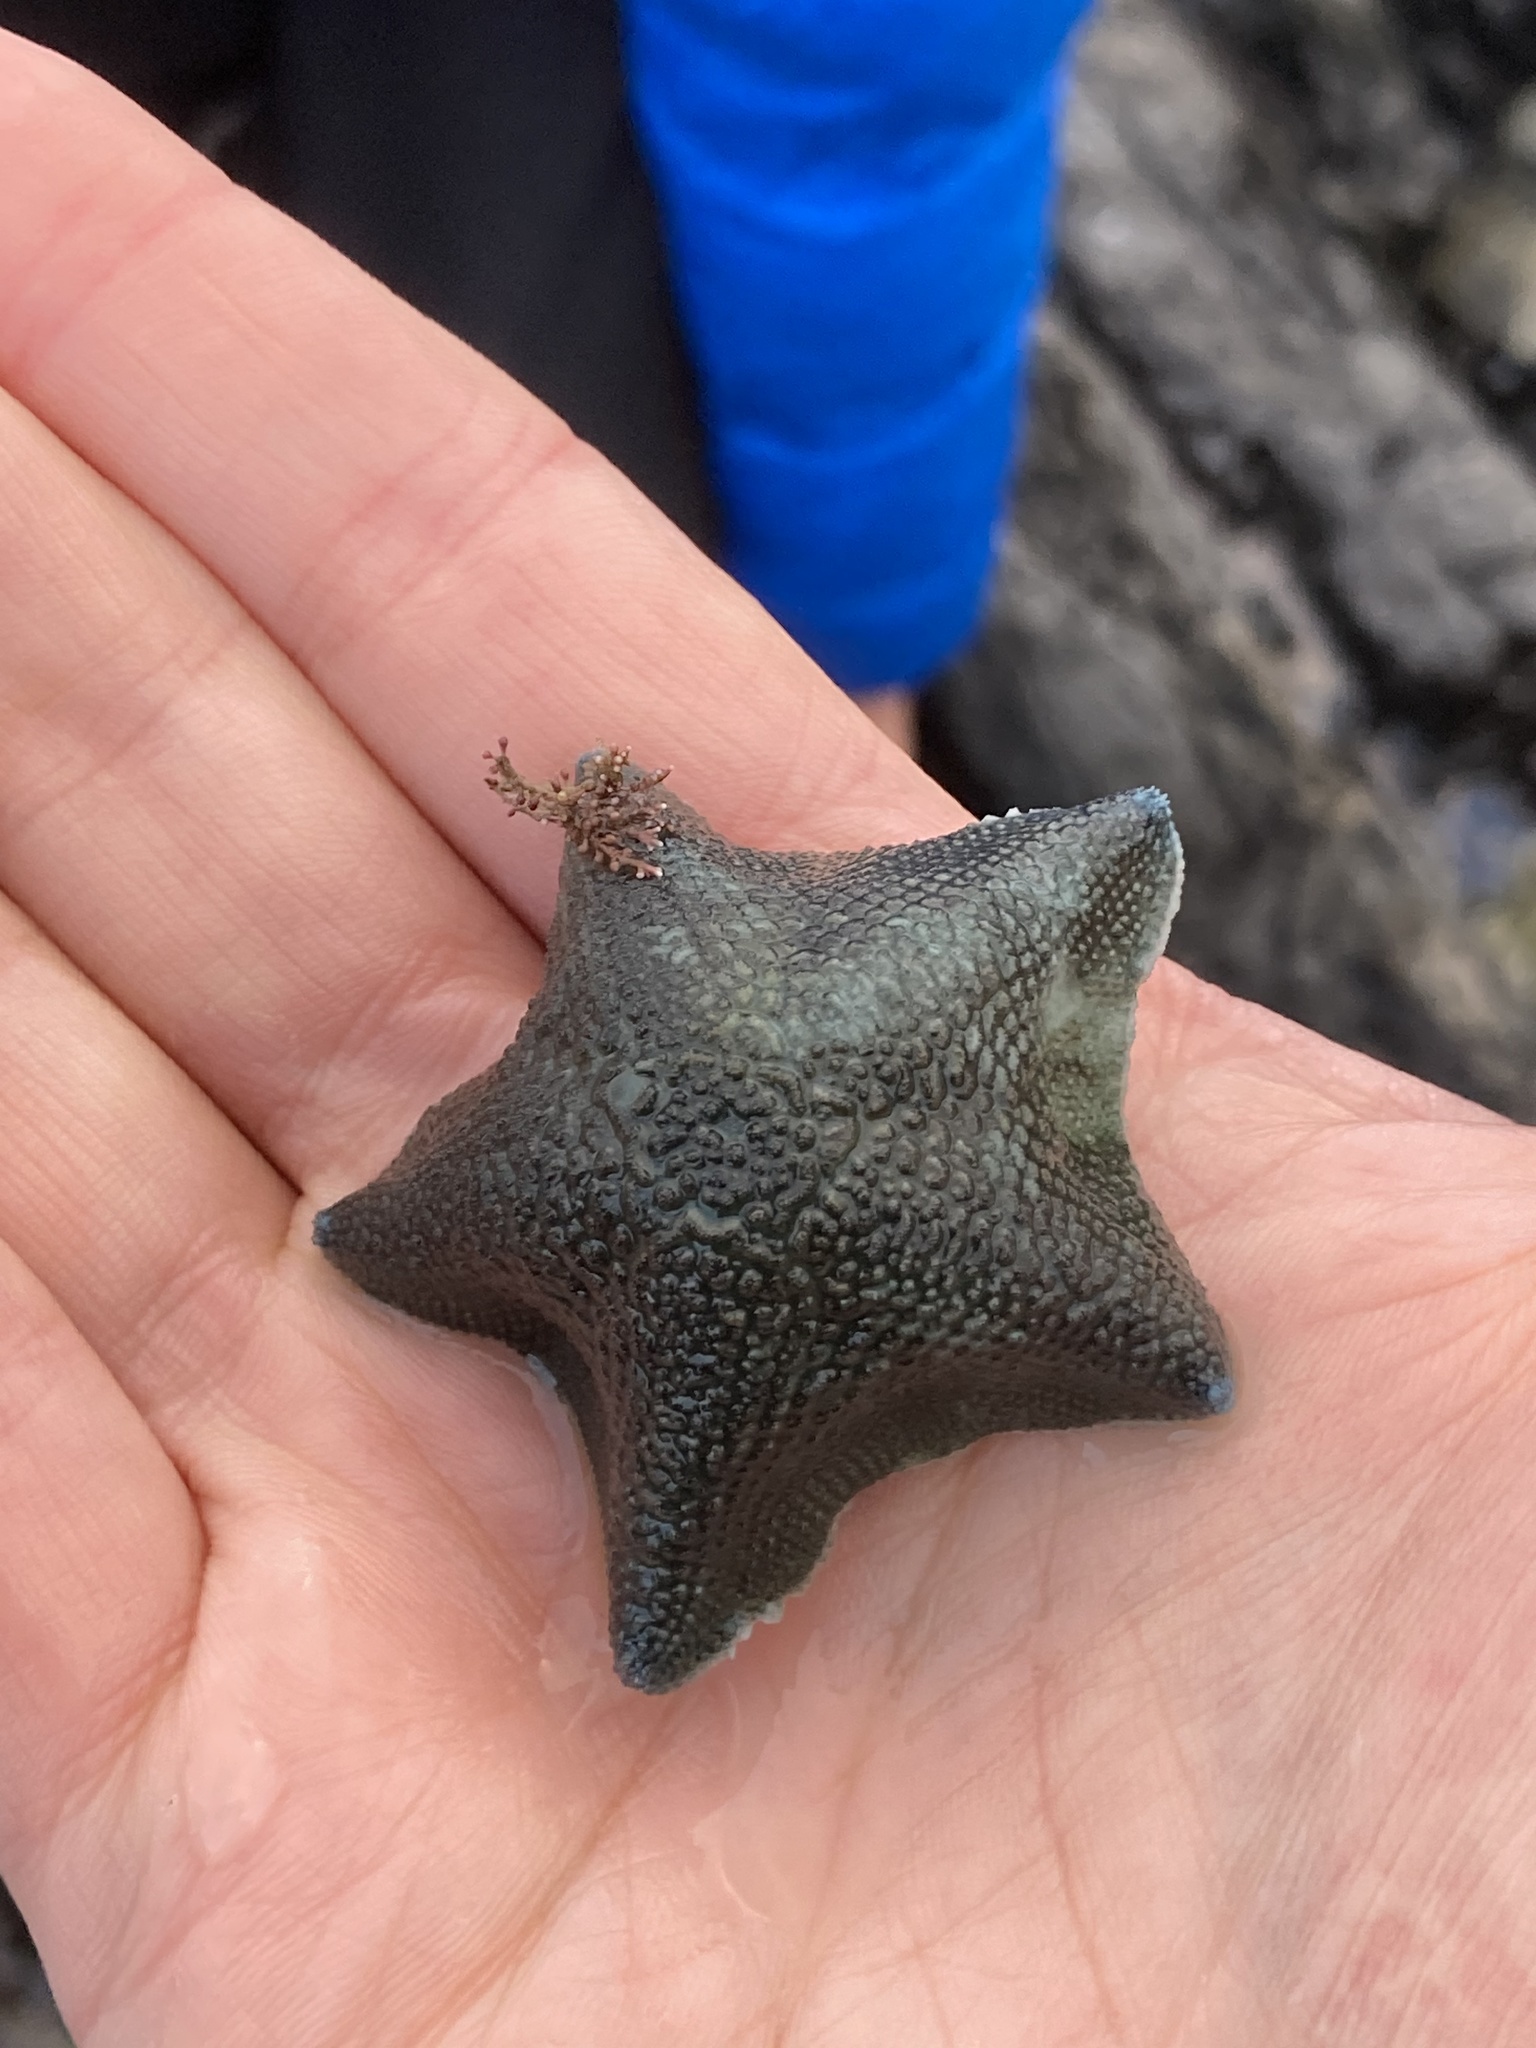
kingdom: Animalia
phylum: Echinodermata
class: Asteroidea
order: Valvatida
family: Asterinidae
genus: Patiriella
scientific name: Patiriella regularis
